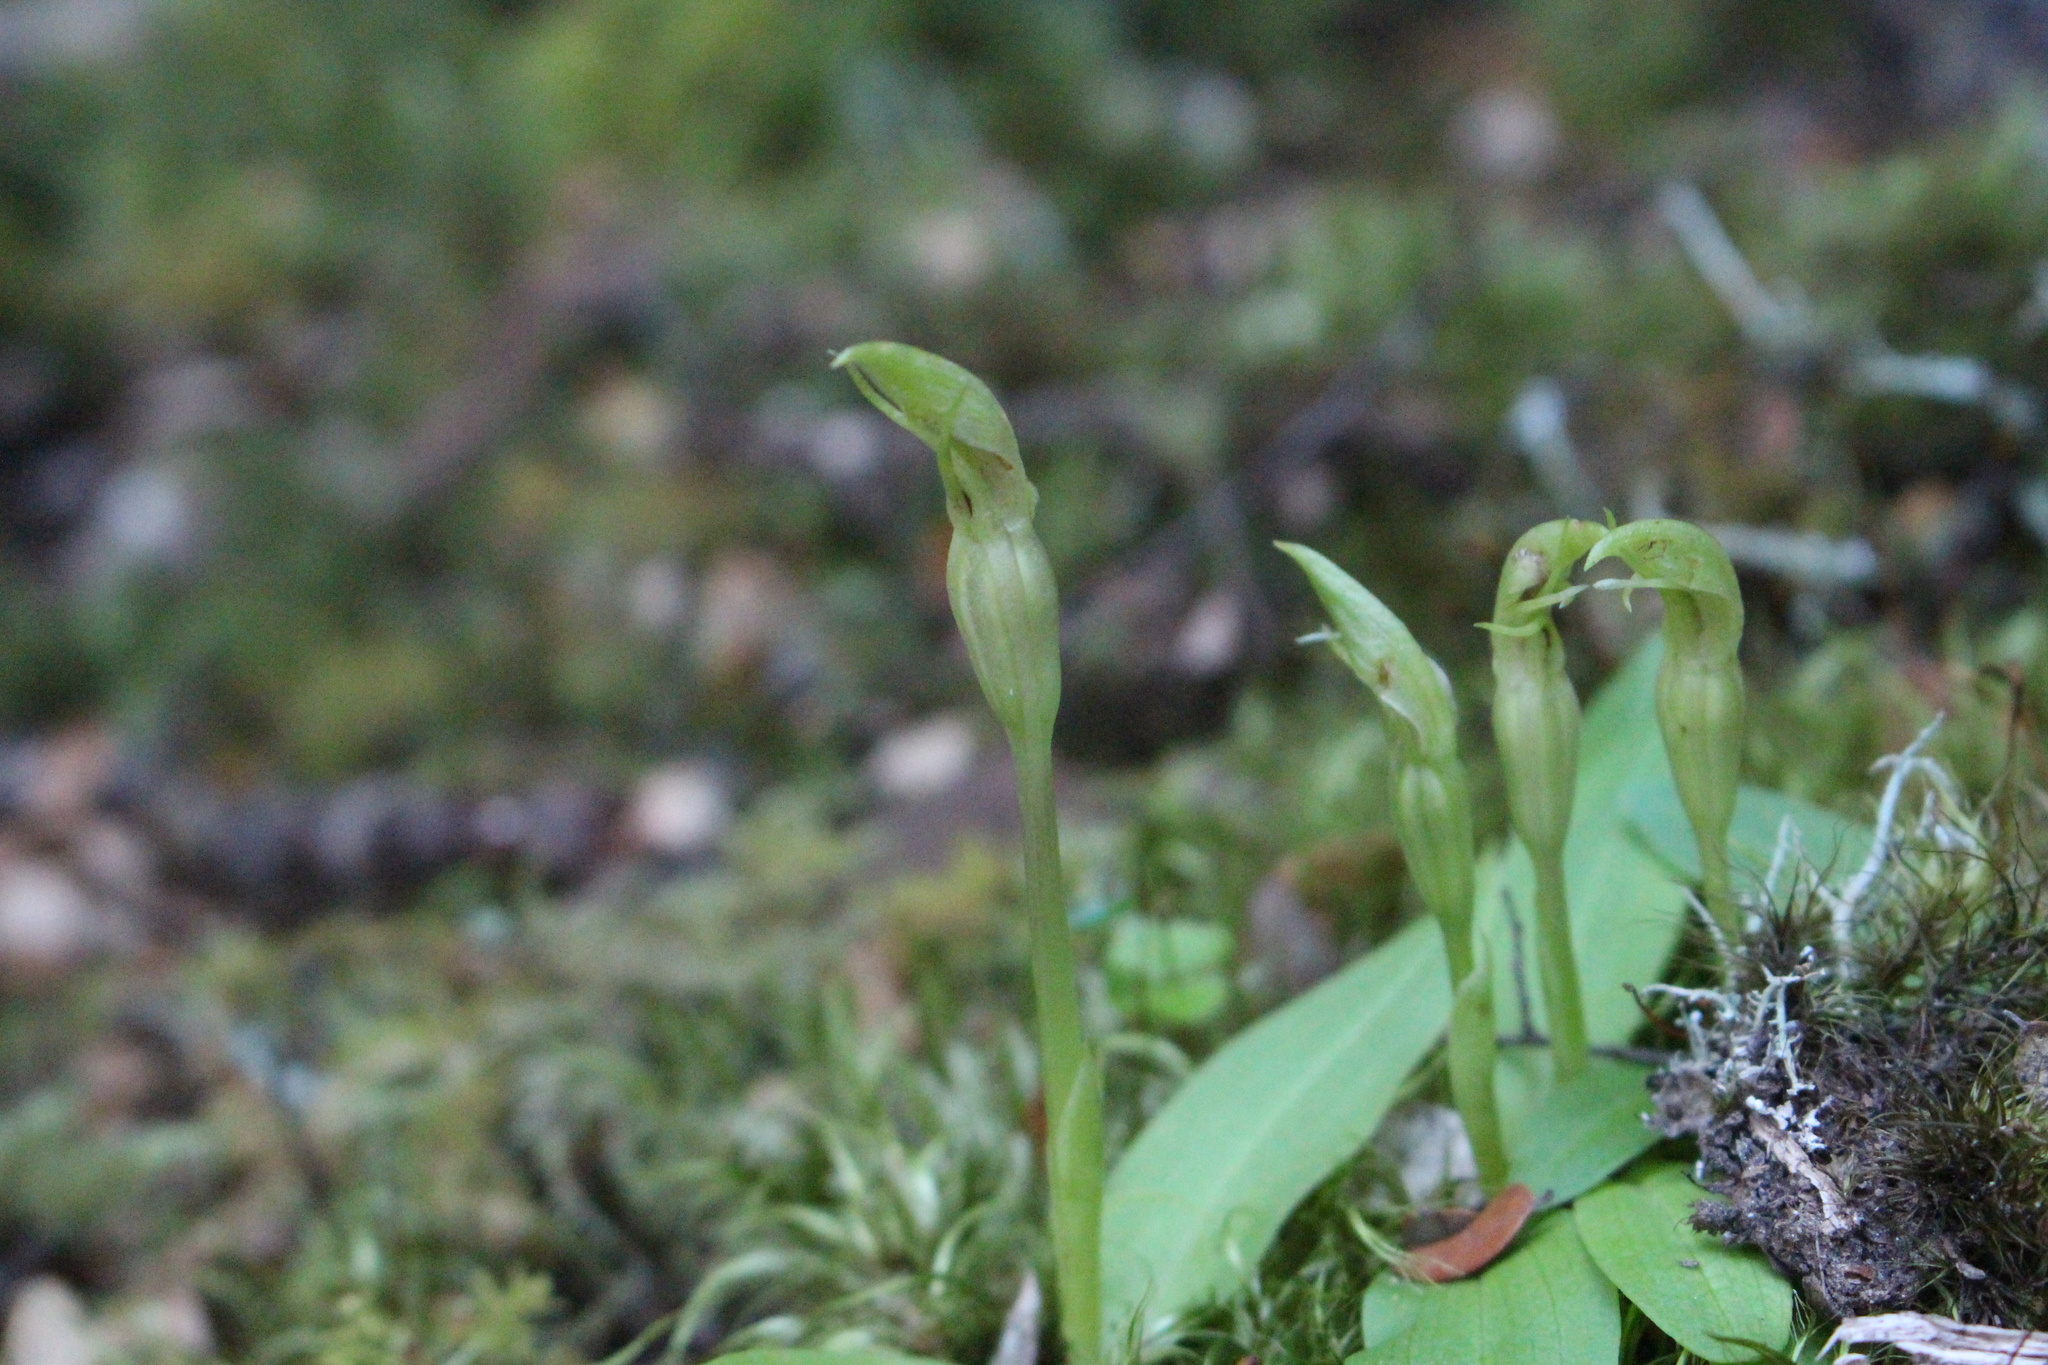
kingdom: Plantae
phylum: Tracheophyta
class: Liliopsida
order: Asparagales
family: Orchidaceae
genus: Chiloglottis
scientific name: Chiloglottis cornuta
